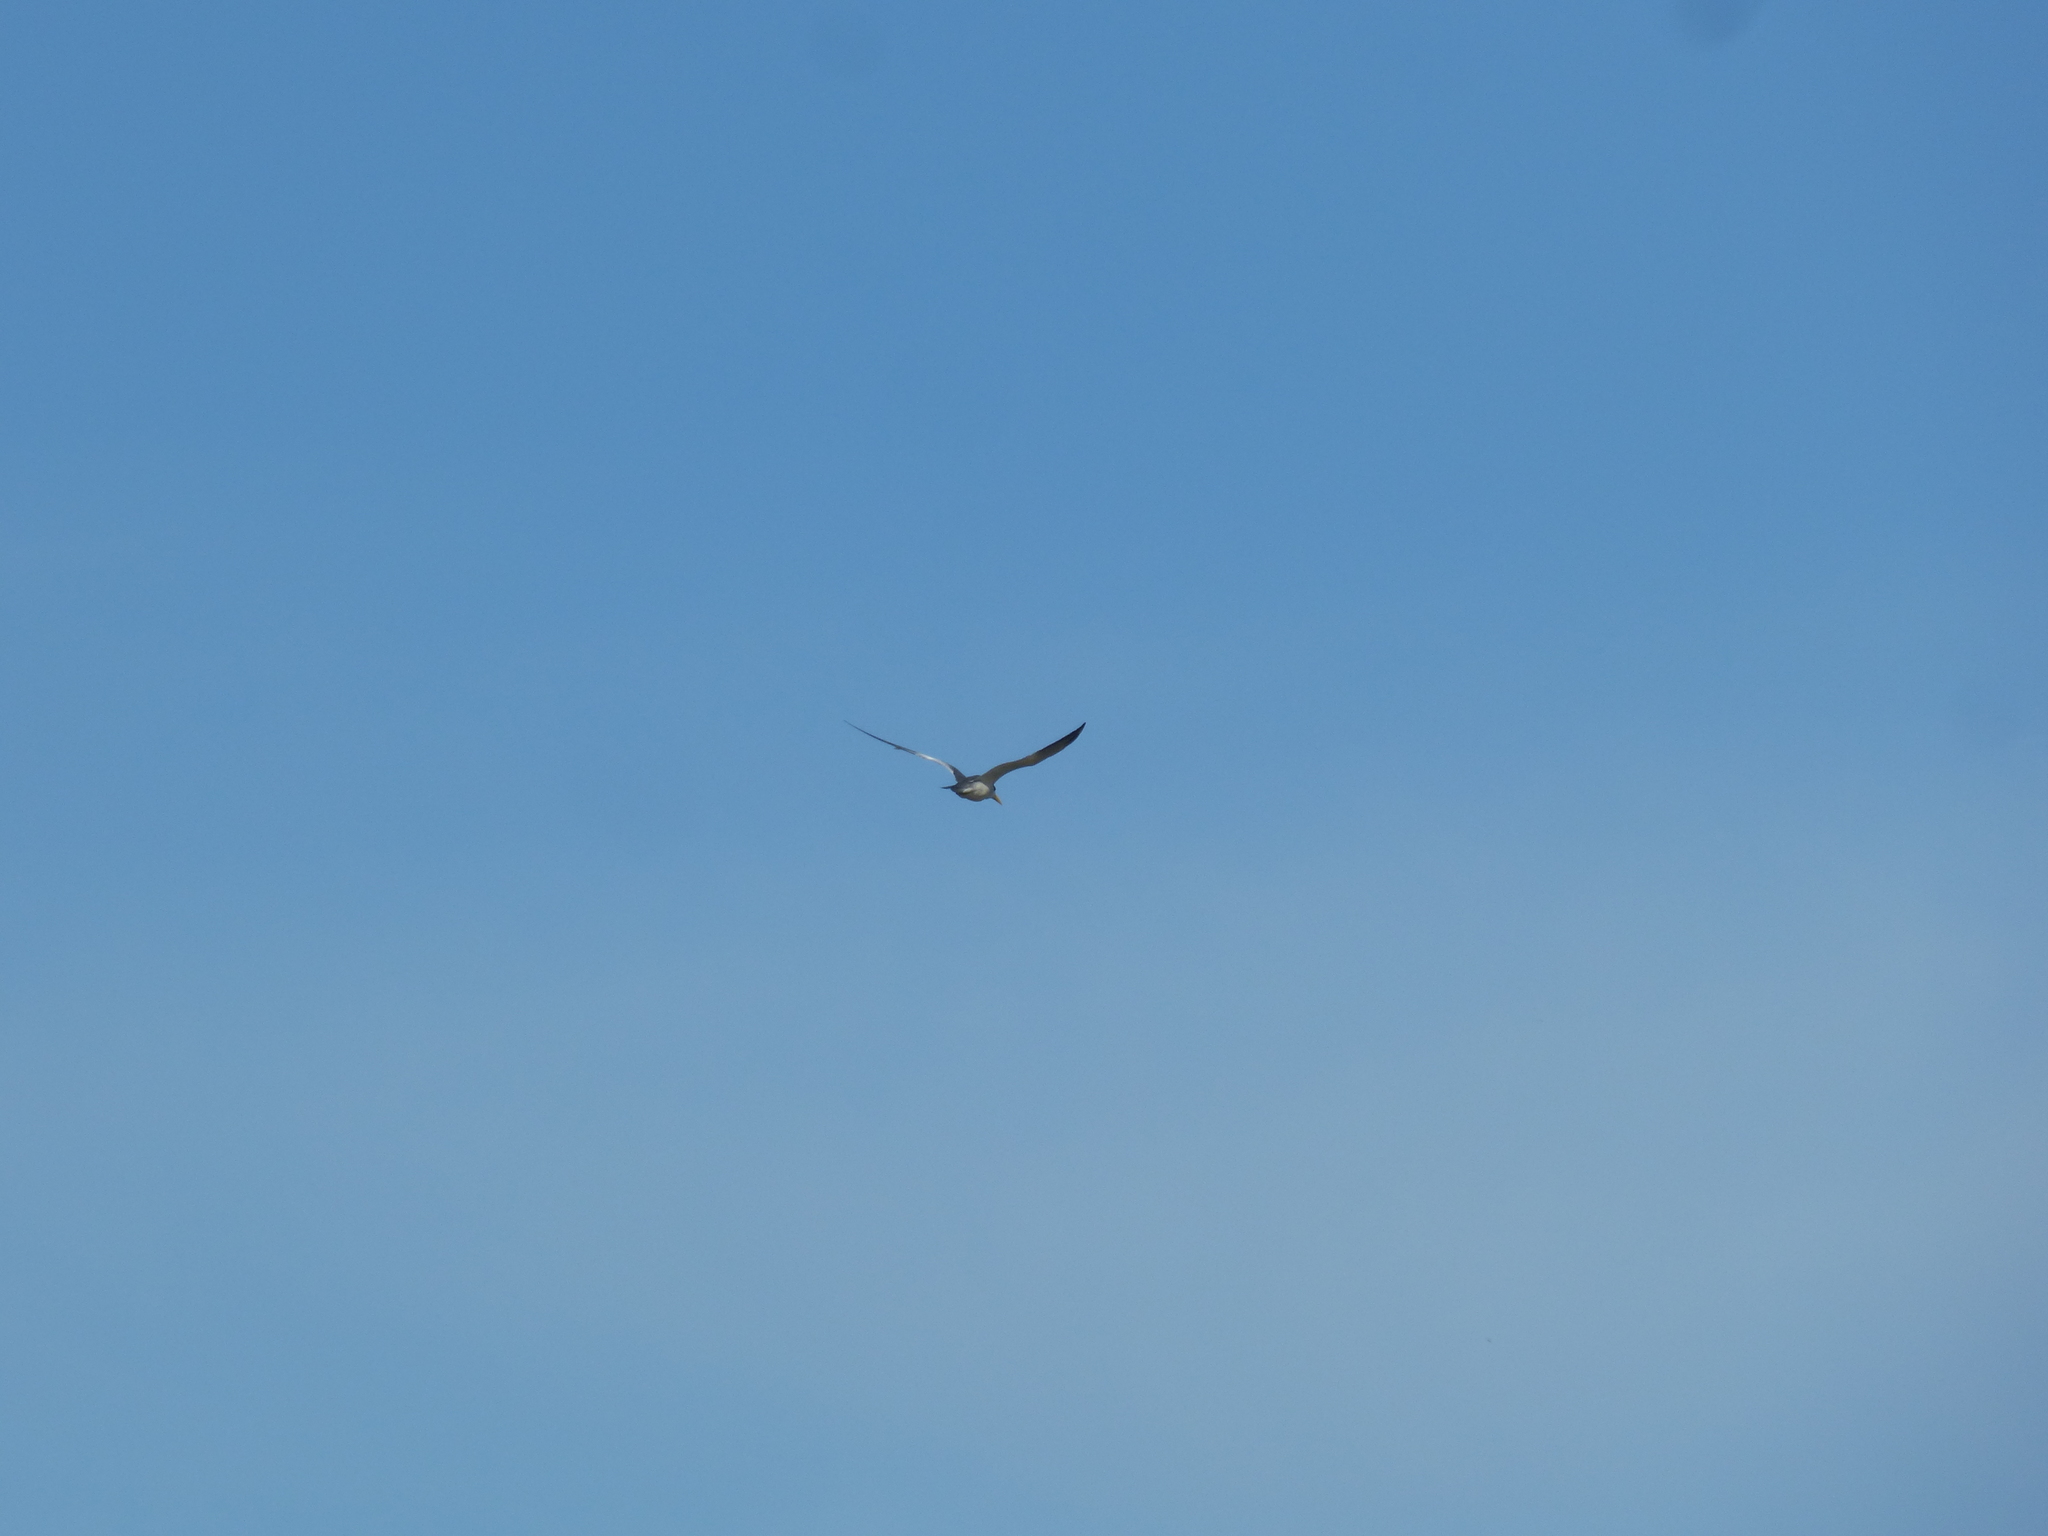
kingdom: Animalia
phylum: Chordata
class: Aves
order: Charadriiformes
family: Laridae
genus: Phaetusa
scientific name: Phaetusa simplex
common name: Large-billed tern
